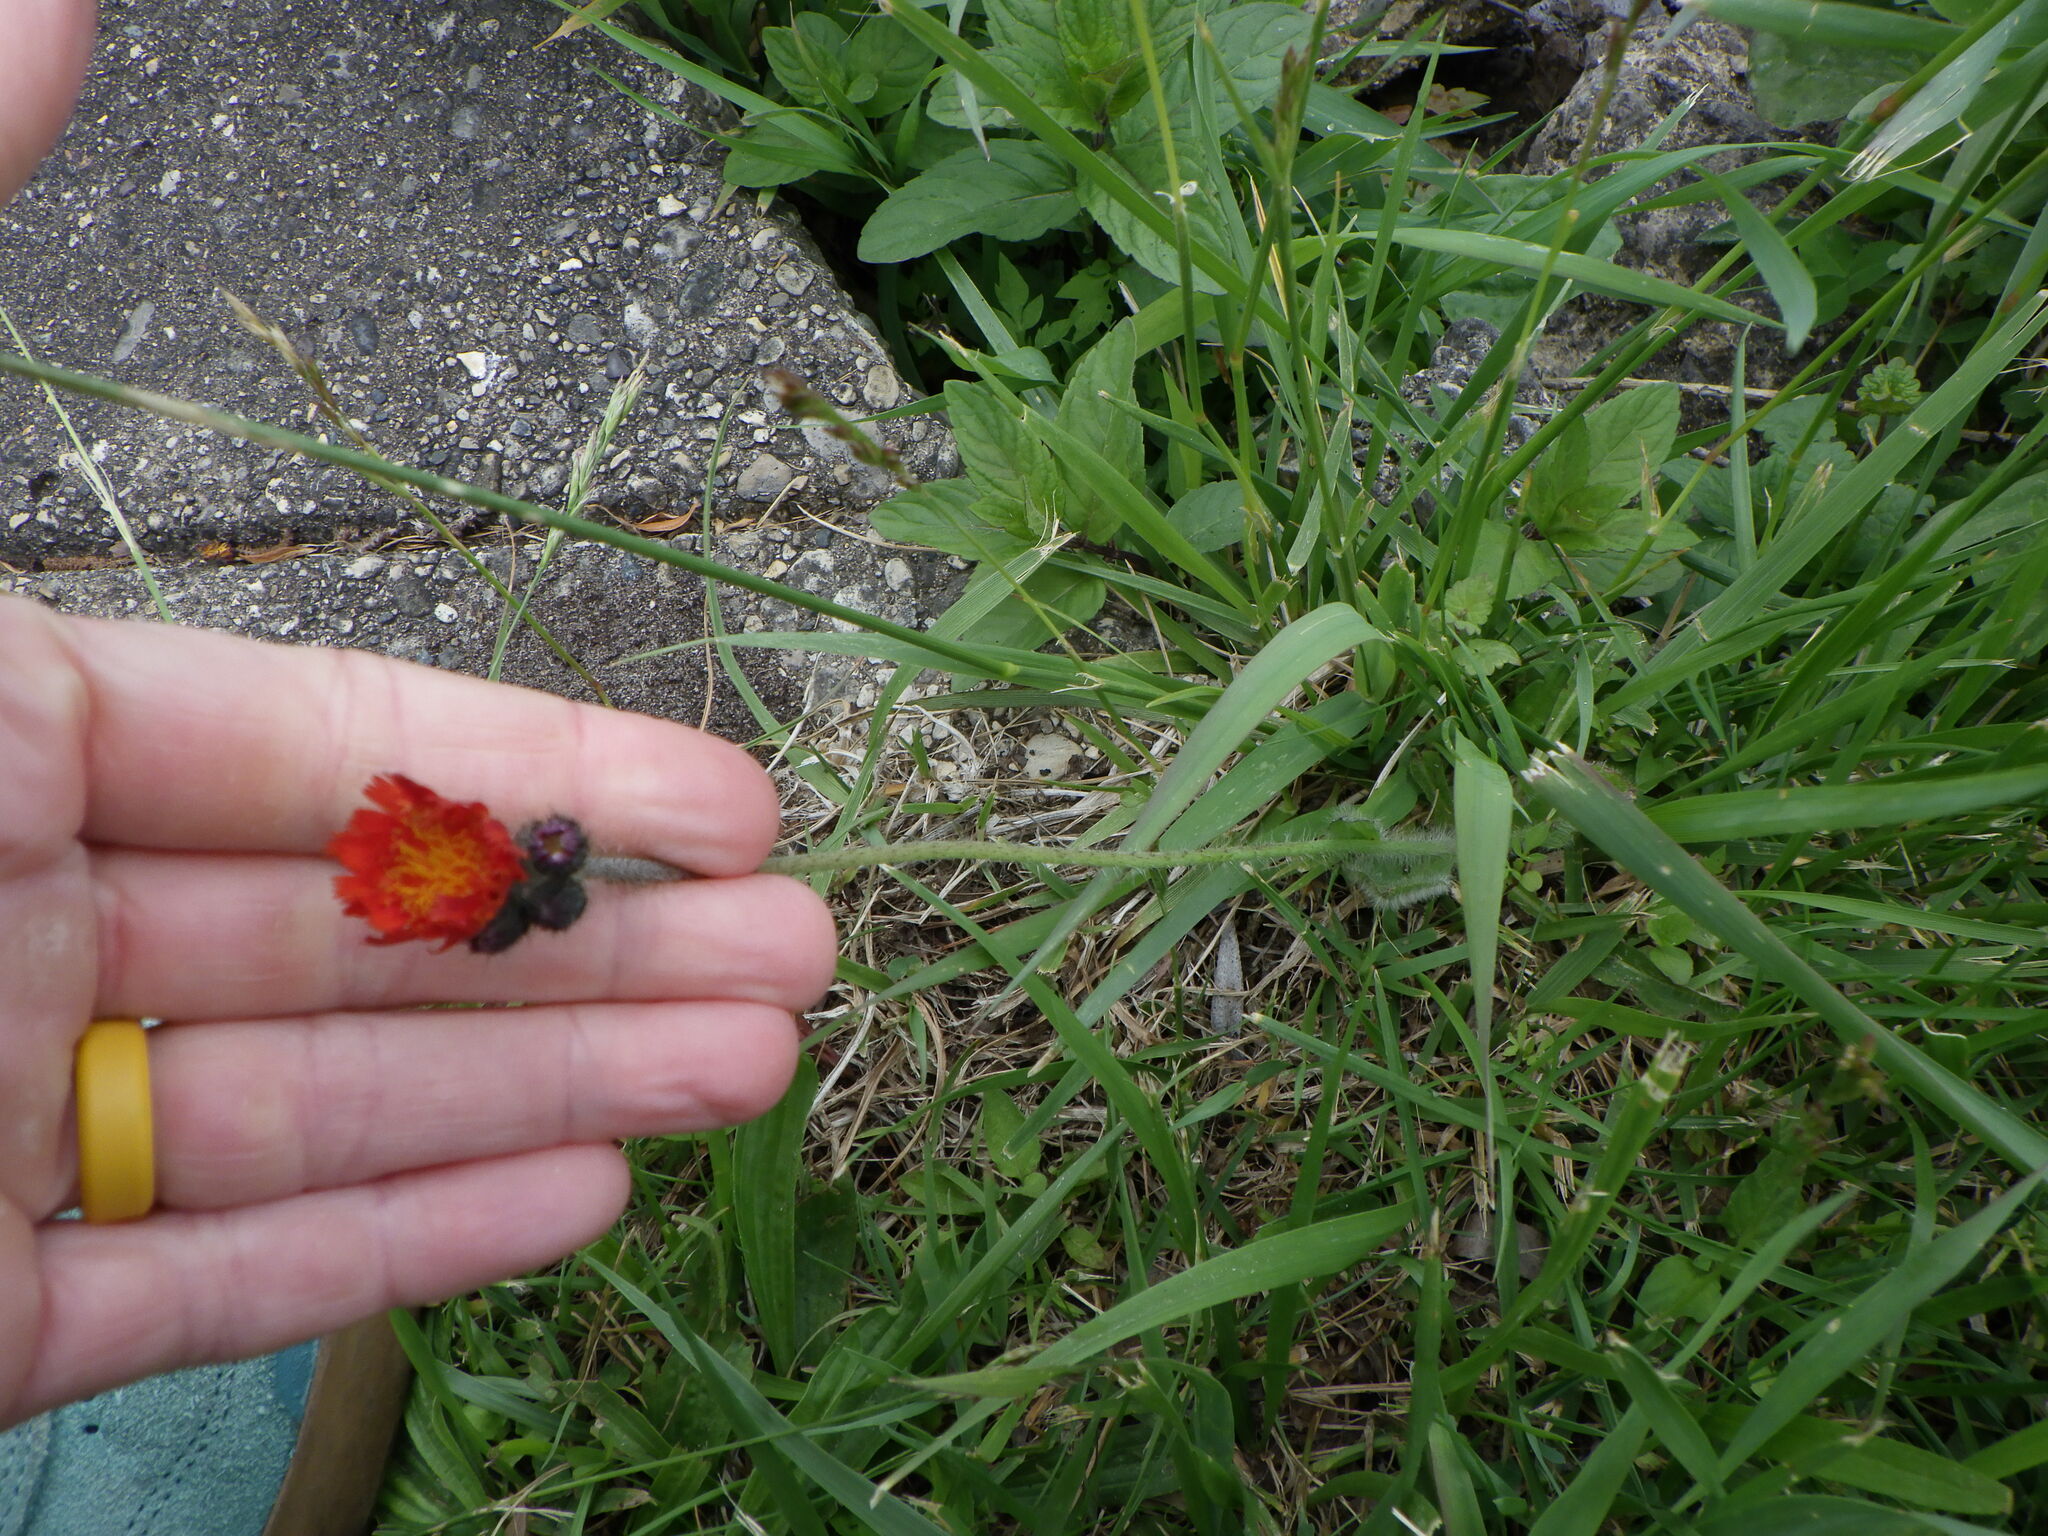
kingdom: Plantae
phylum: Tracheophyta
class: Magnoliopsida
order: Asterales
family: Asteraceae
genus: Pilosella
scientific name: Pilosella aurantiaca
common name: Fox-and-cubs
